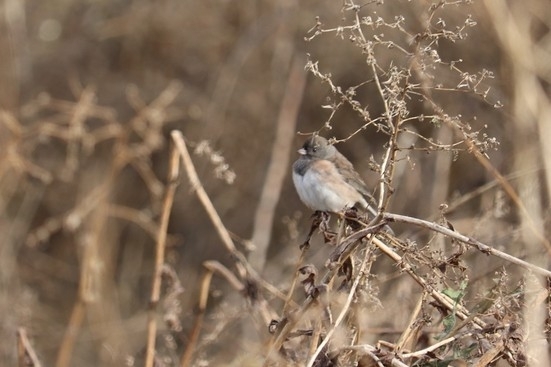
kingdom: Animalia
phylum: Chordata
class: Aves
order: Passeriformes
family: Passerellidae
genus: Junco
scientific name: Junco hyemalis
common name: Dark-eyed junco
